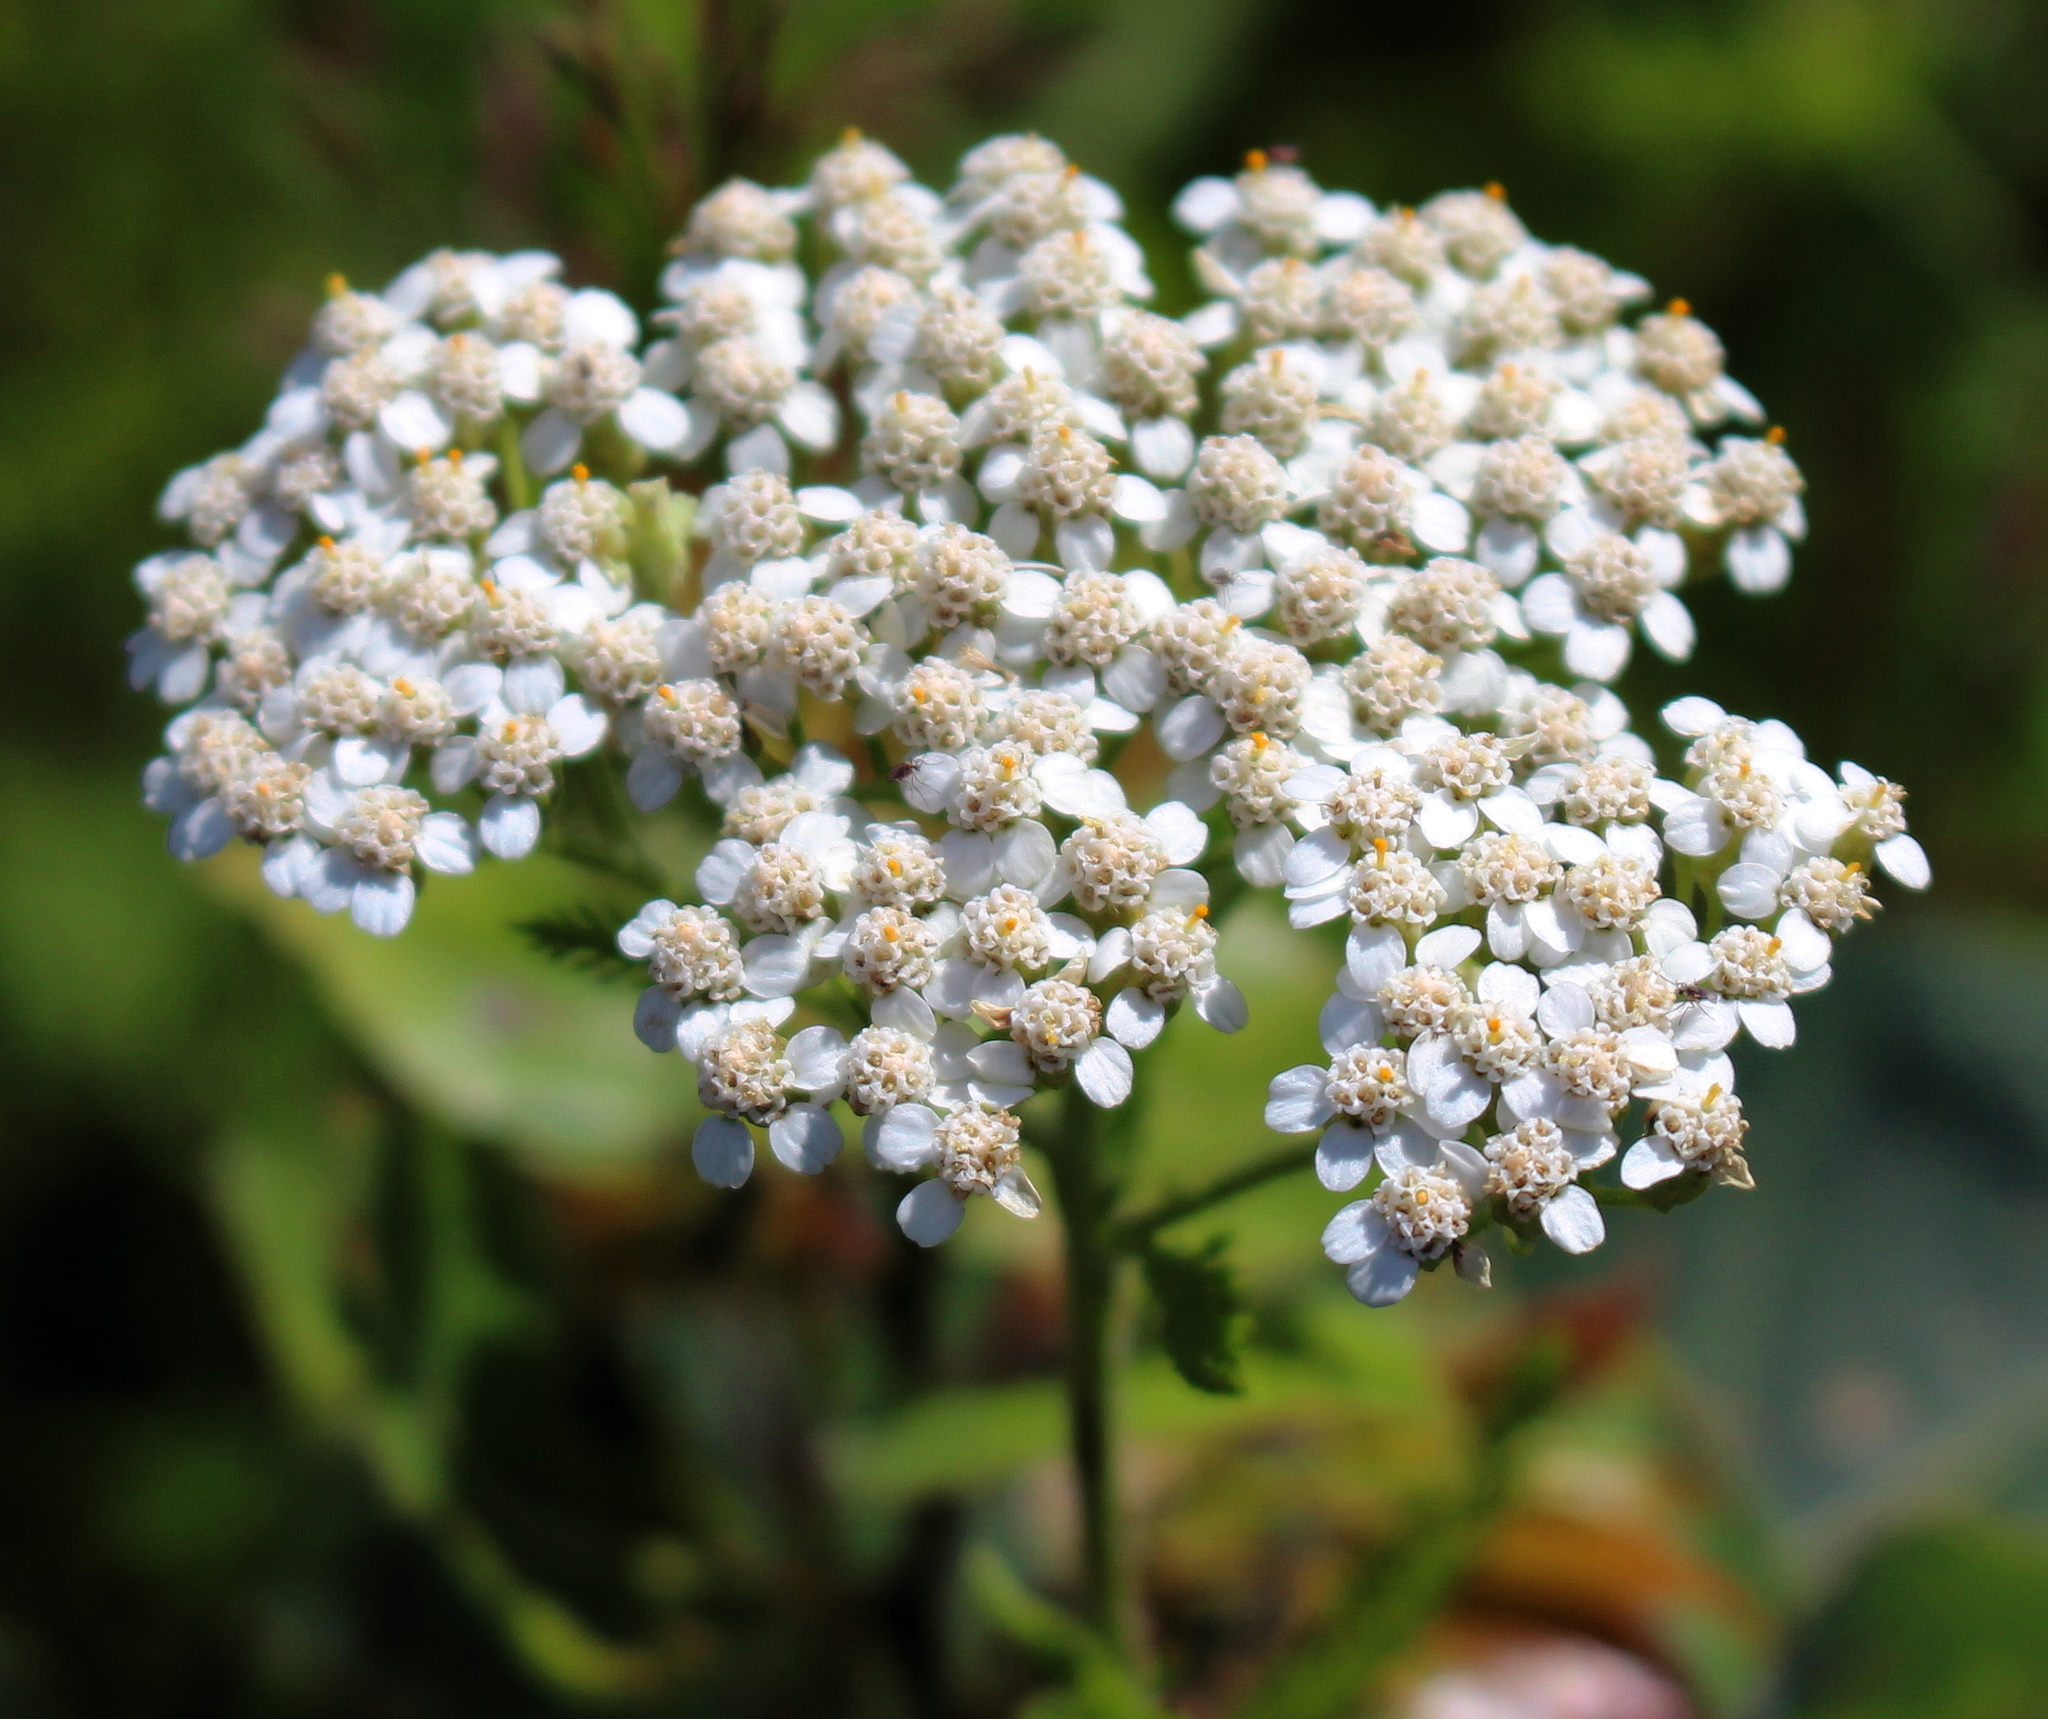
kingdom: Plantae
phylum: Tracheophyta
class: Magnoliopsida
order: Asterales
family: Asteraceae
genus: Achillea
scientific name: Achillea millefolium
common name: Yarrow
